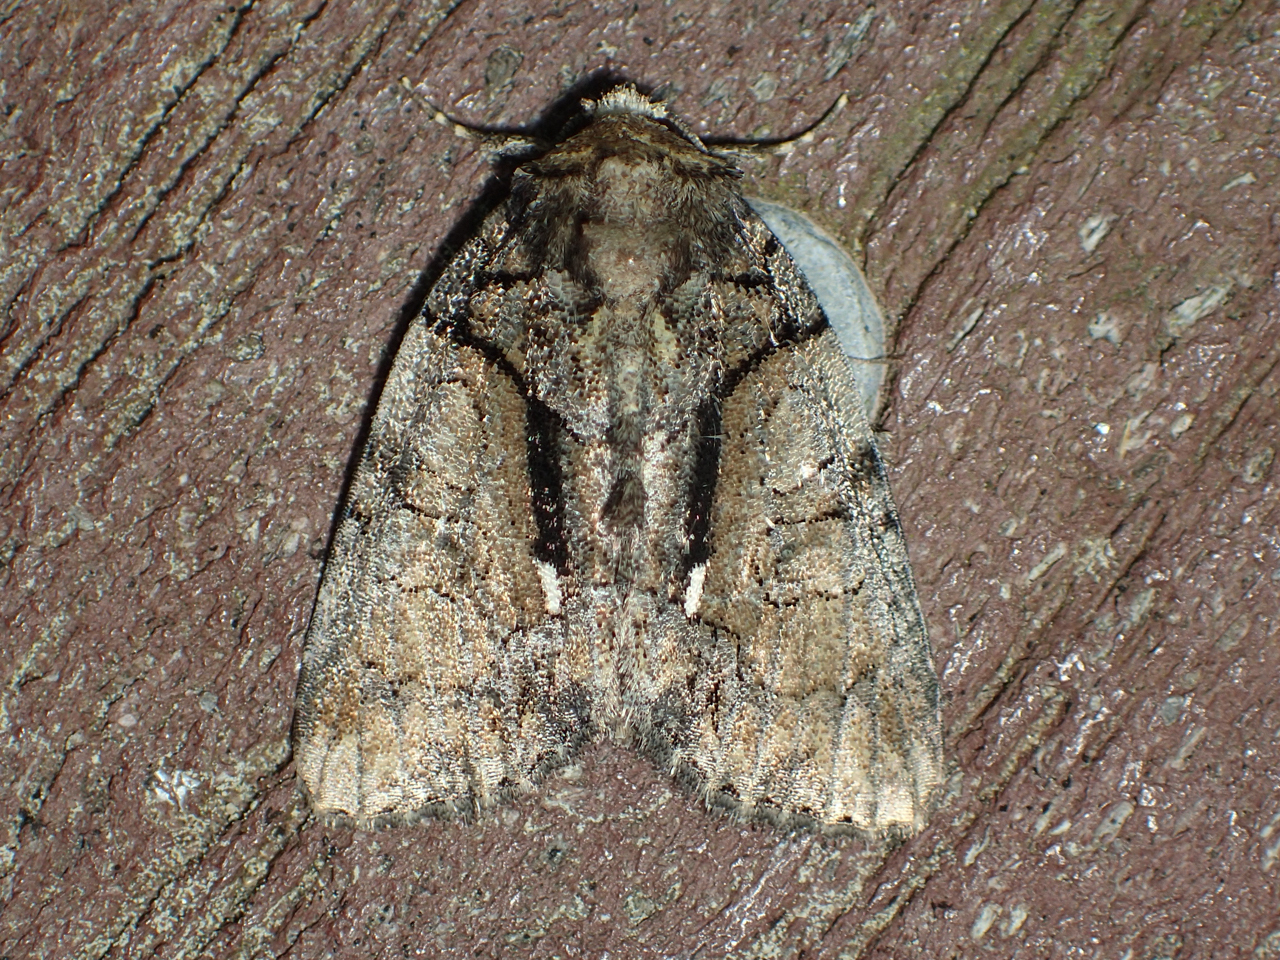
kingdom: Animalia
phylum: Arthropoda
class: Insecta
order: Lepidoptera
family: Noctuidae
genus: Chytonix
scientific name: Chytonix palliatricula
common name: Cloaked marvel
